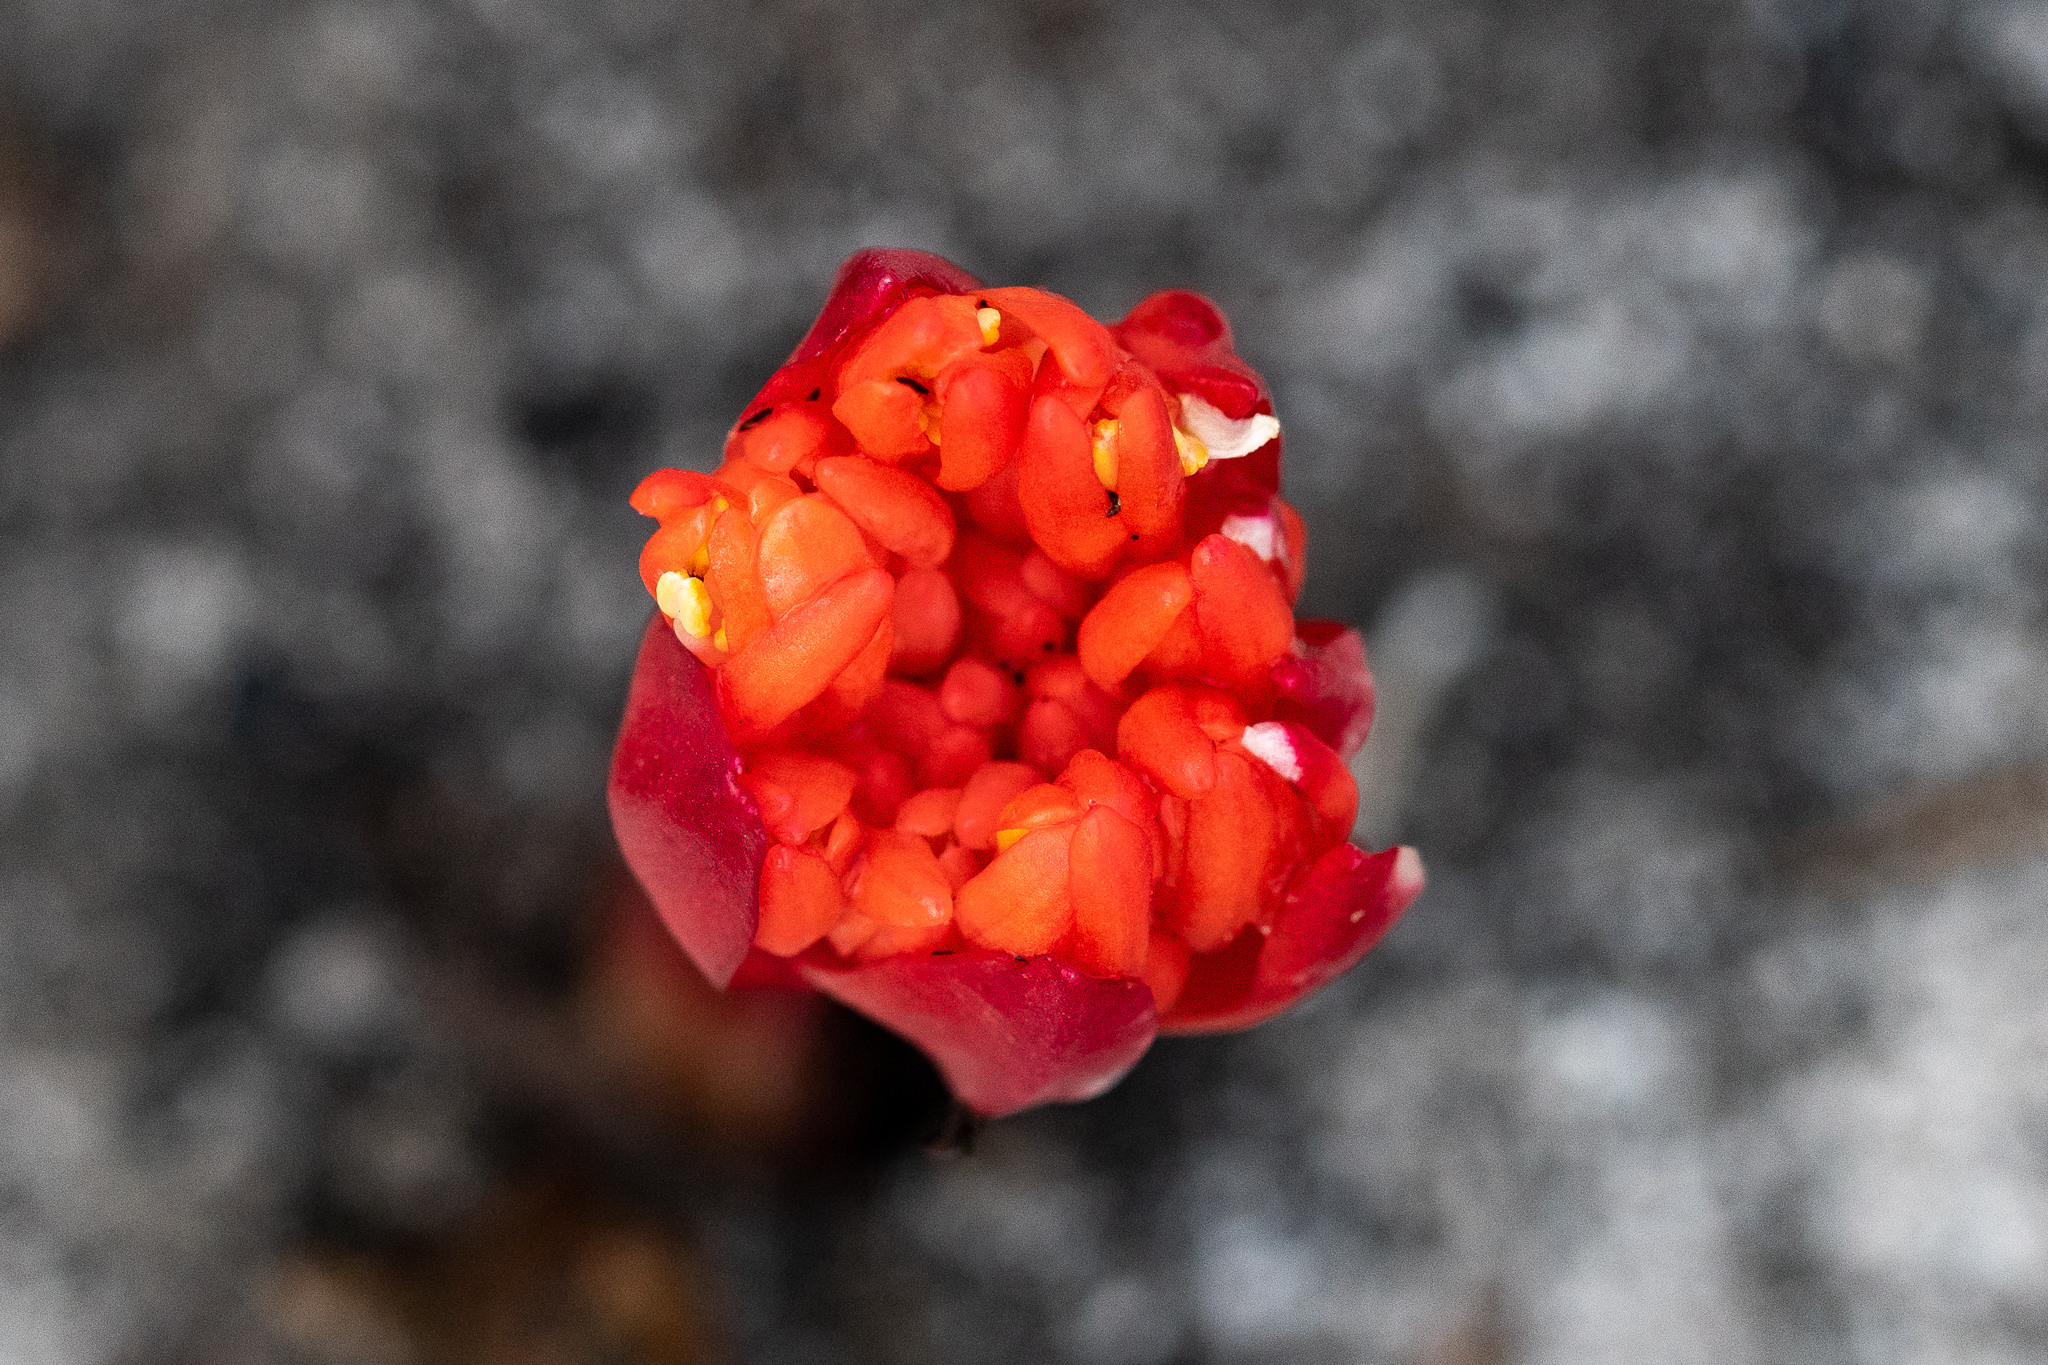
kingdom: Plantae
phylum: Tracheophyta
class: Liliopsida
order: Asparagales
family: Amaryllidaceae
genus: Haemanthus
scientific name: Haemanthus canaliculatus
